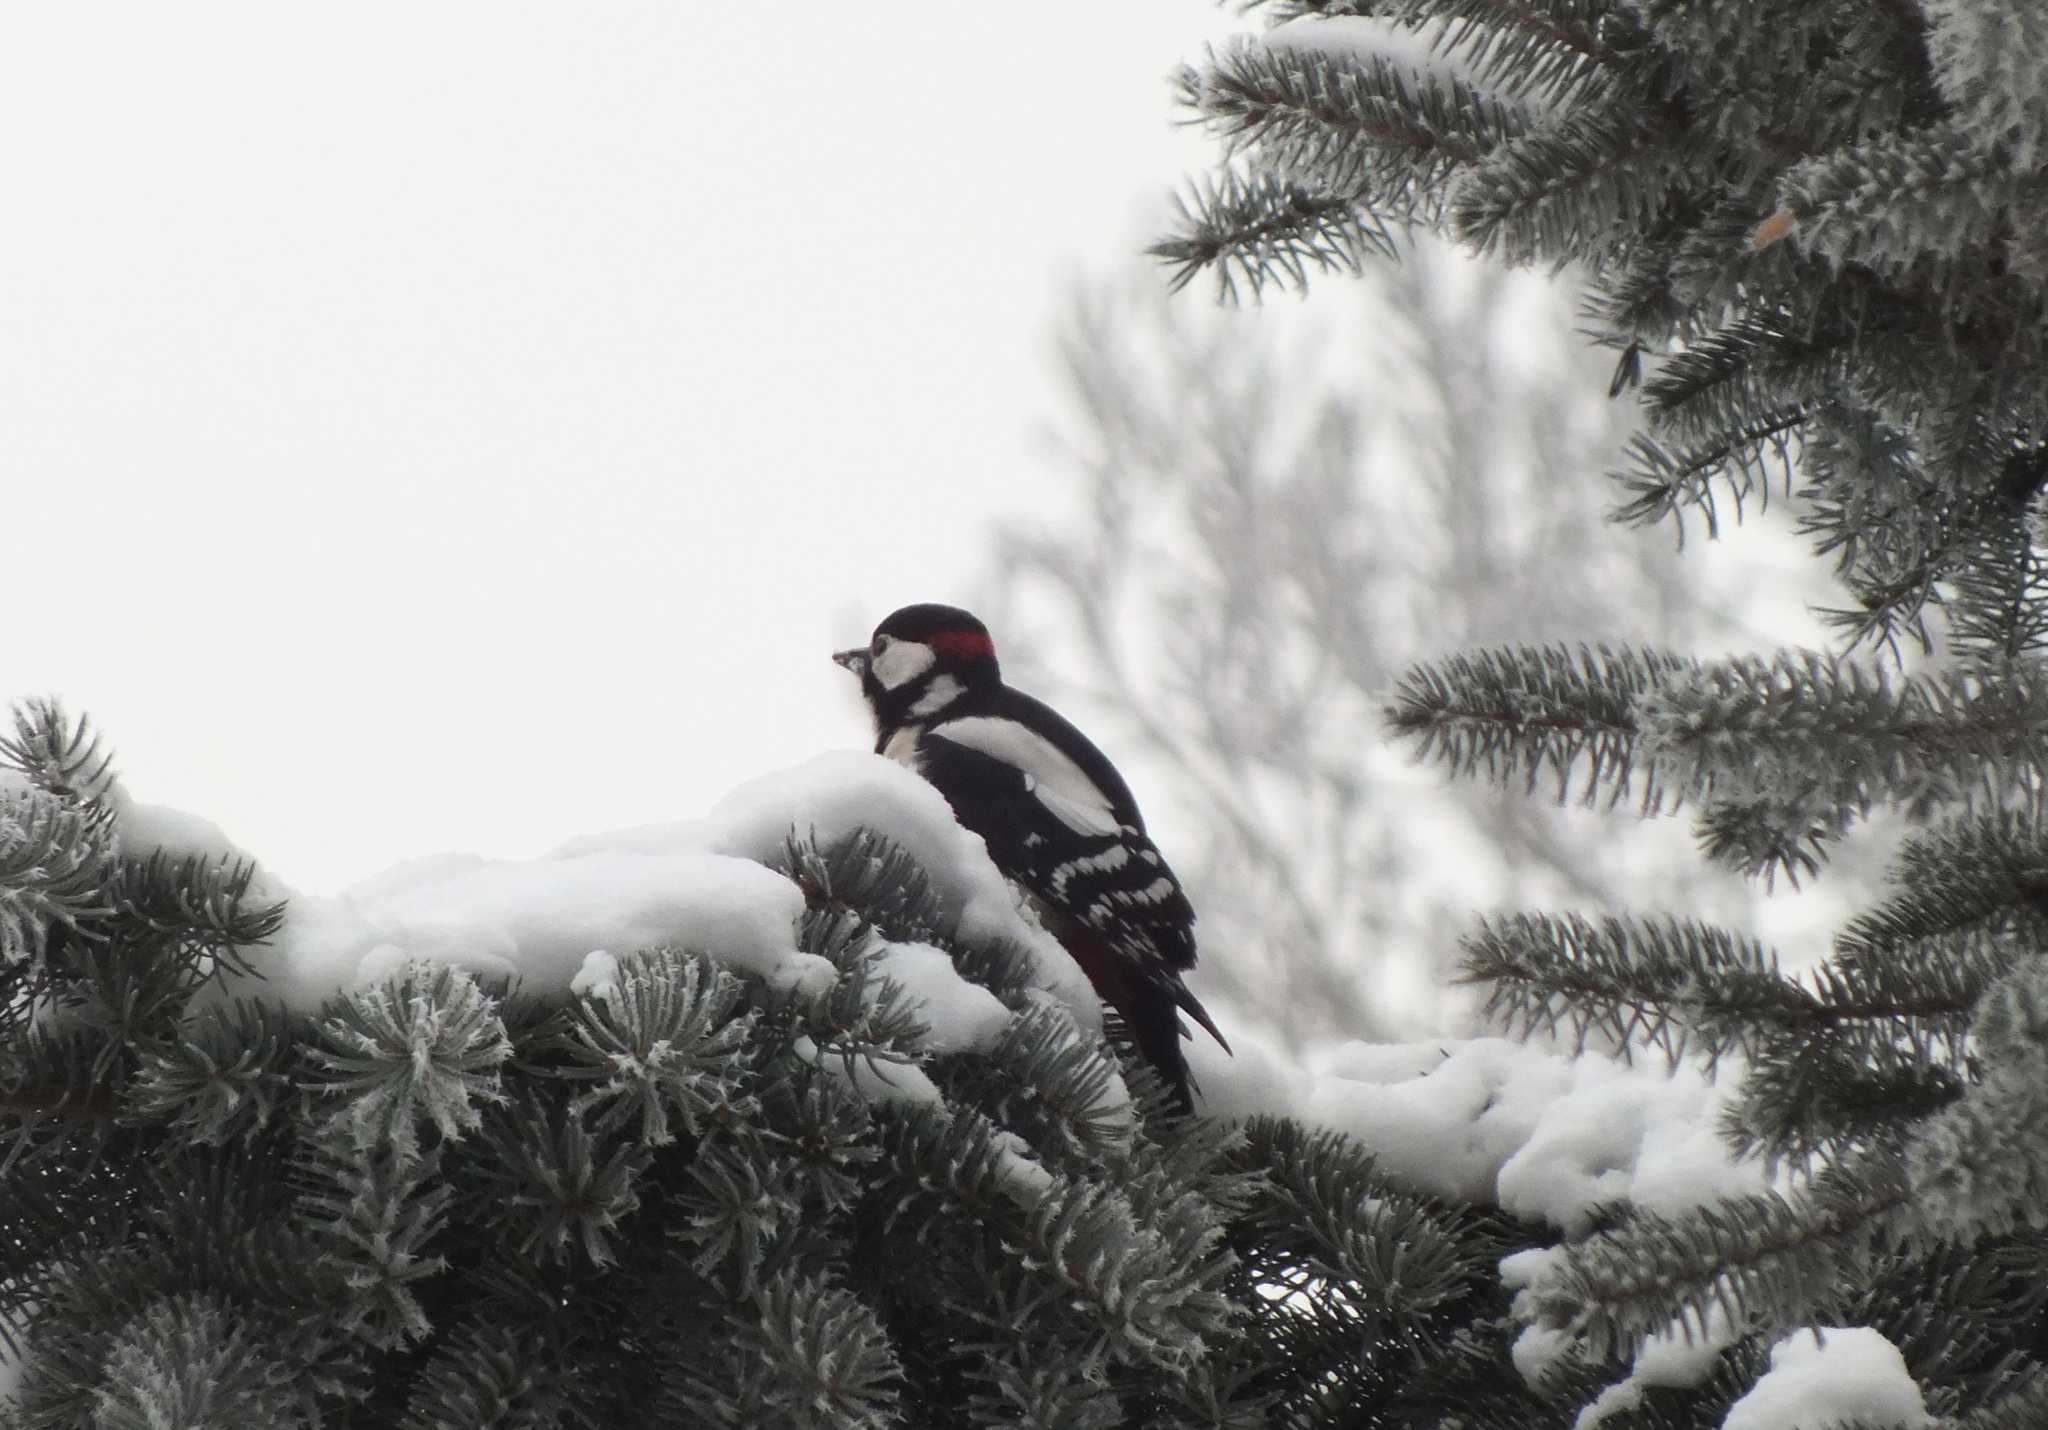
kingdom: Animalia
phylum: Chordata
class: Aves
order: Piciformes
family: Picidae
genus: Dendrocopos
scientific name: Dendrocopos major
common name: Great spotted woodpecker
